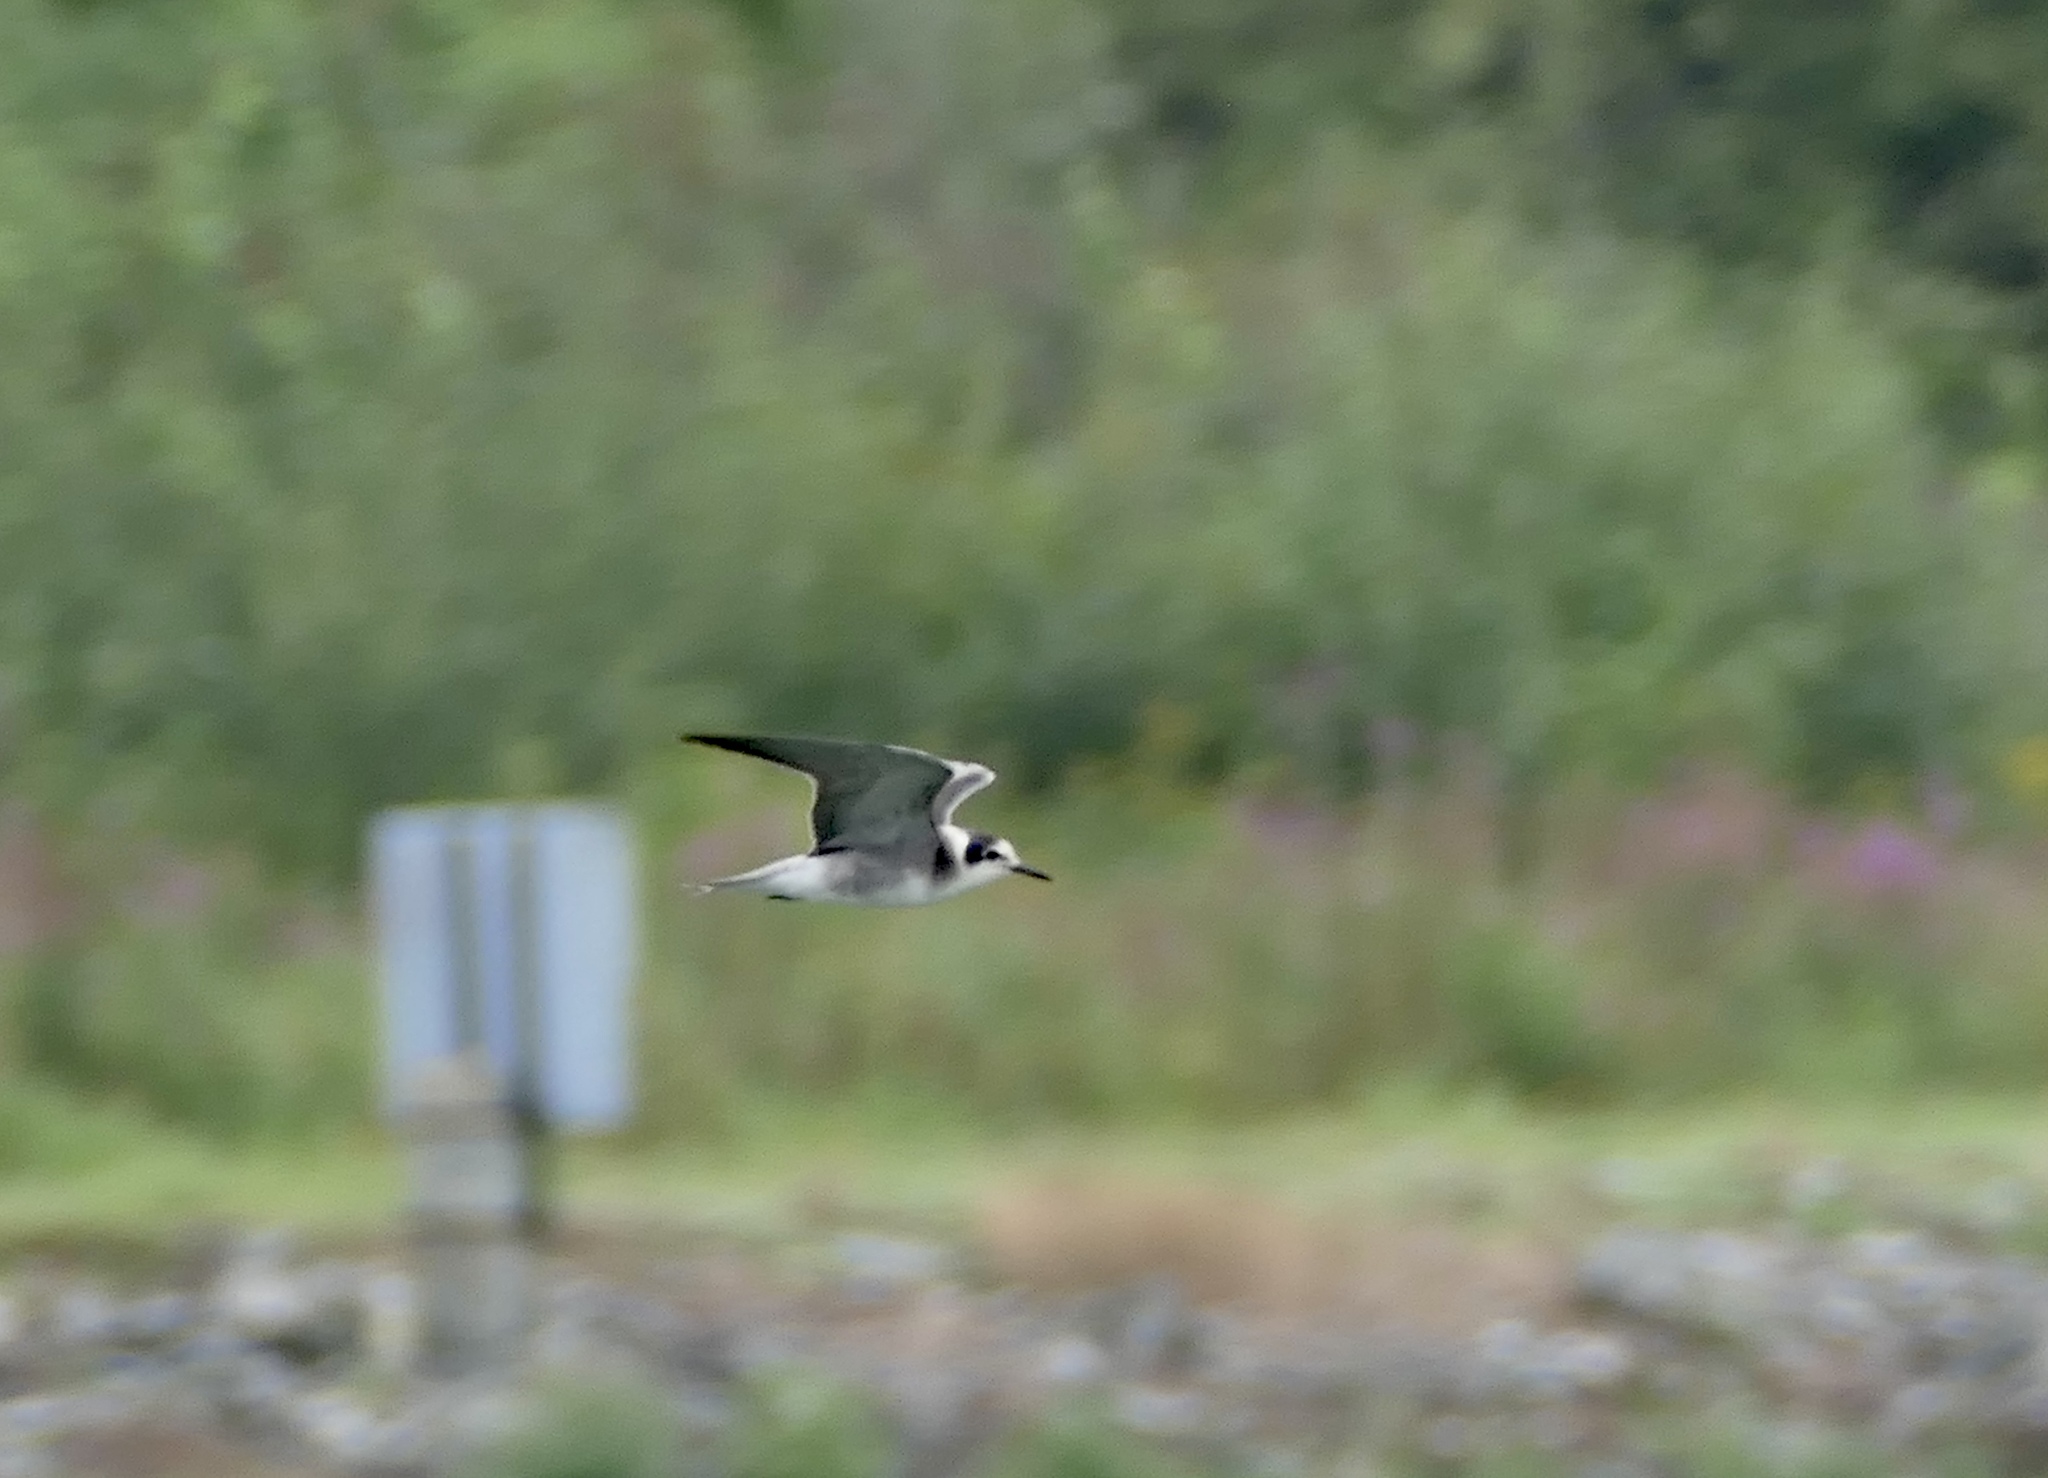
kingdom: Animalia
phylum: Chordata
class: Aves
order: Charadriiformes
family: Laridae
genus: Chlidonias
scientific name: Chlidonias niger
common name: Black tern
